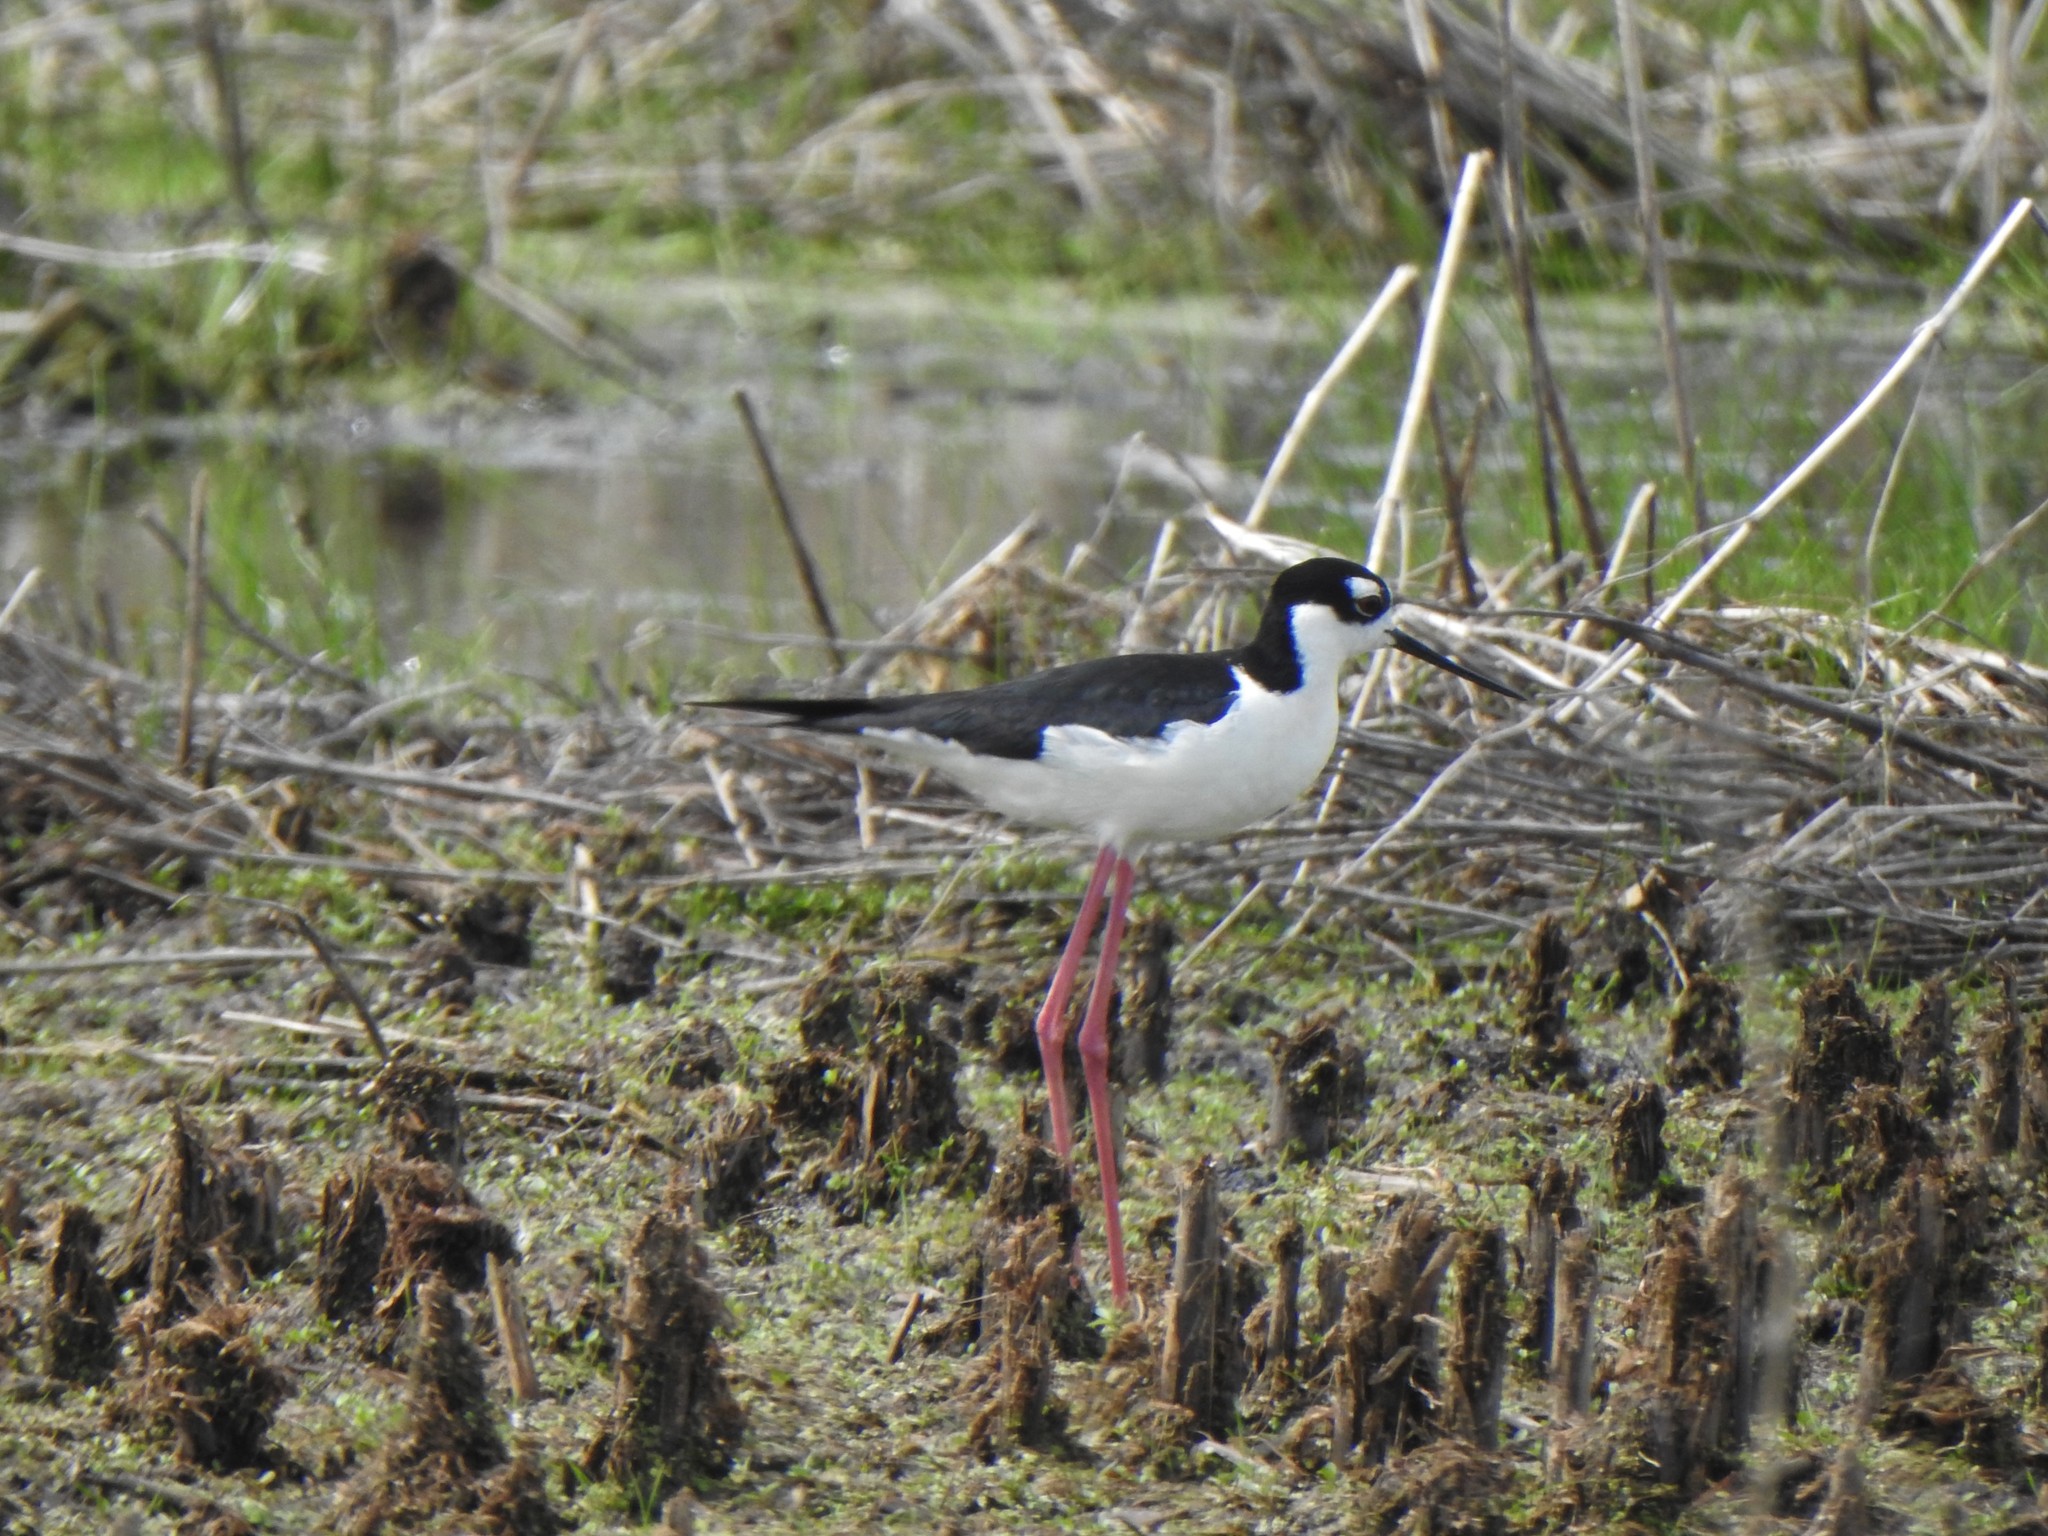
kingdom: Animalia
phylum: Chordata
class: Aves
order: Charadriiformes
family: Recurvirostridae
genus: Himantopus
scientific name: Himantopus mexicanus
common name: Black-necked stilt
